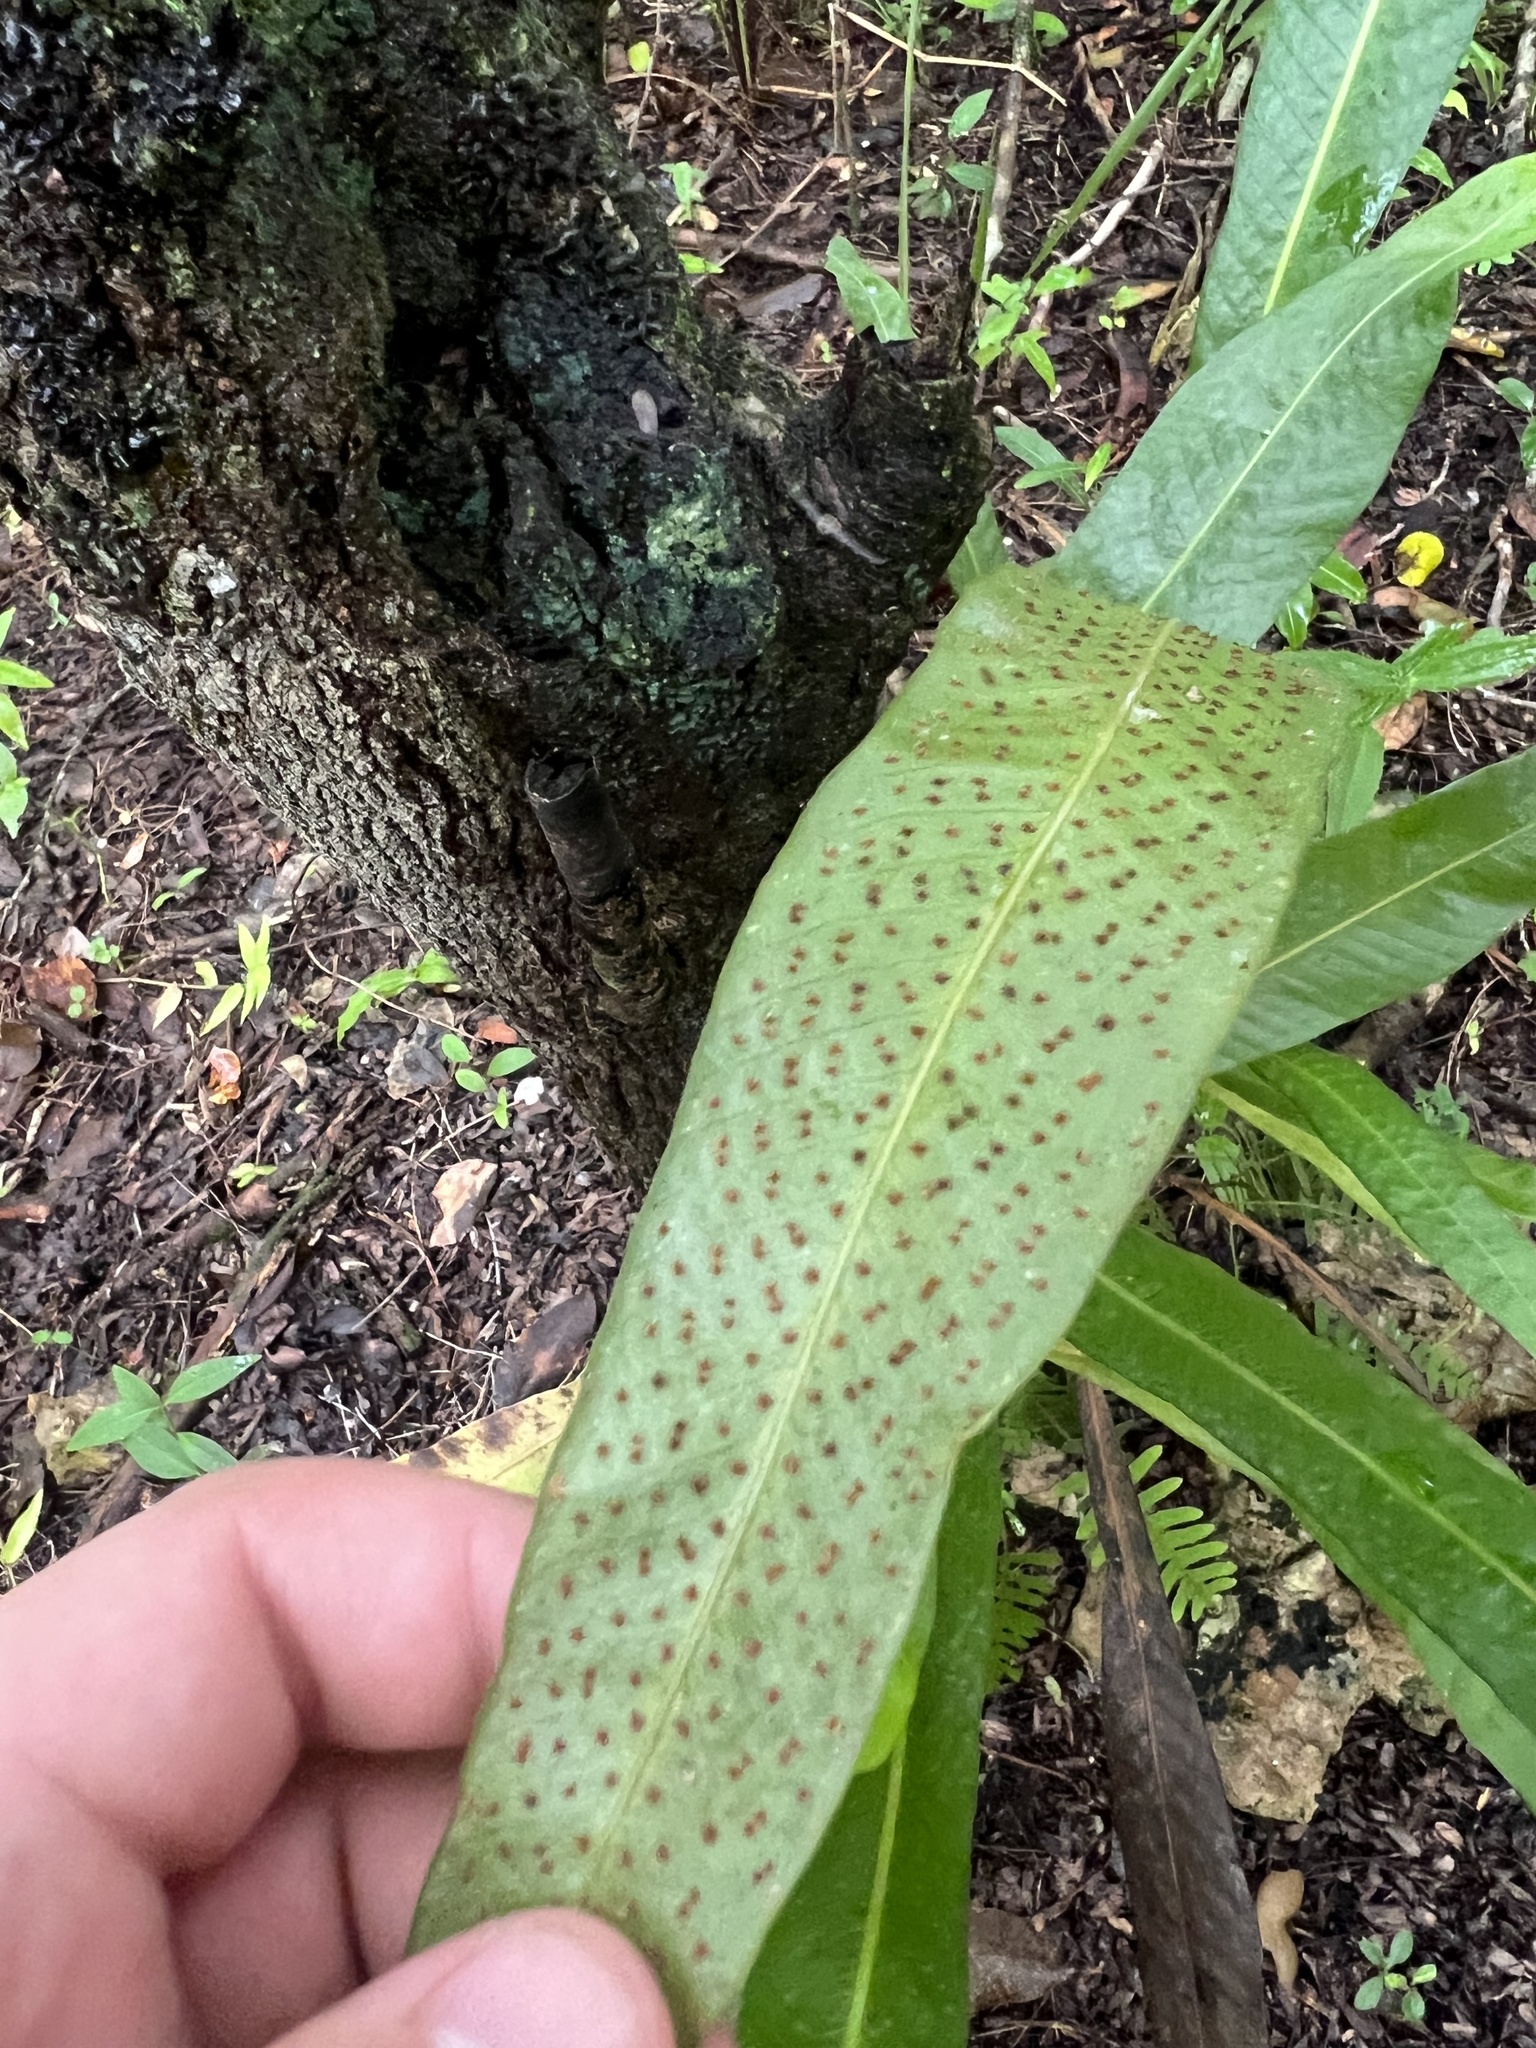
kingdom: Plantae
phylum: Tracheophyta
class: Polypodiopsida
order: Polypodiales
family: Polypodiaceae
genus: Campyloneurum
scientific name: Campyloneurum phyllitidis
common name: Cow-tongue fern
